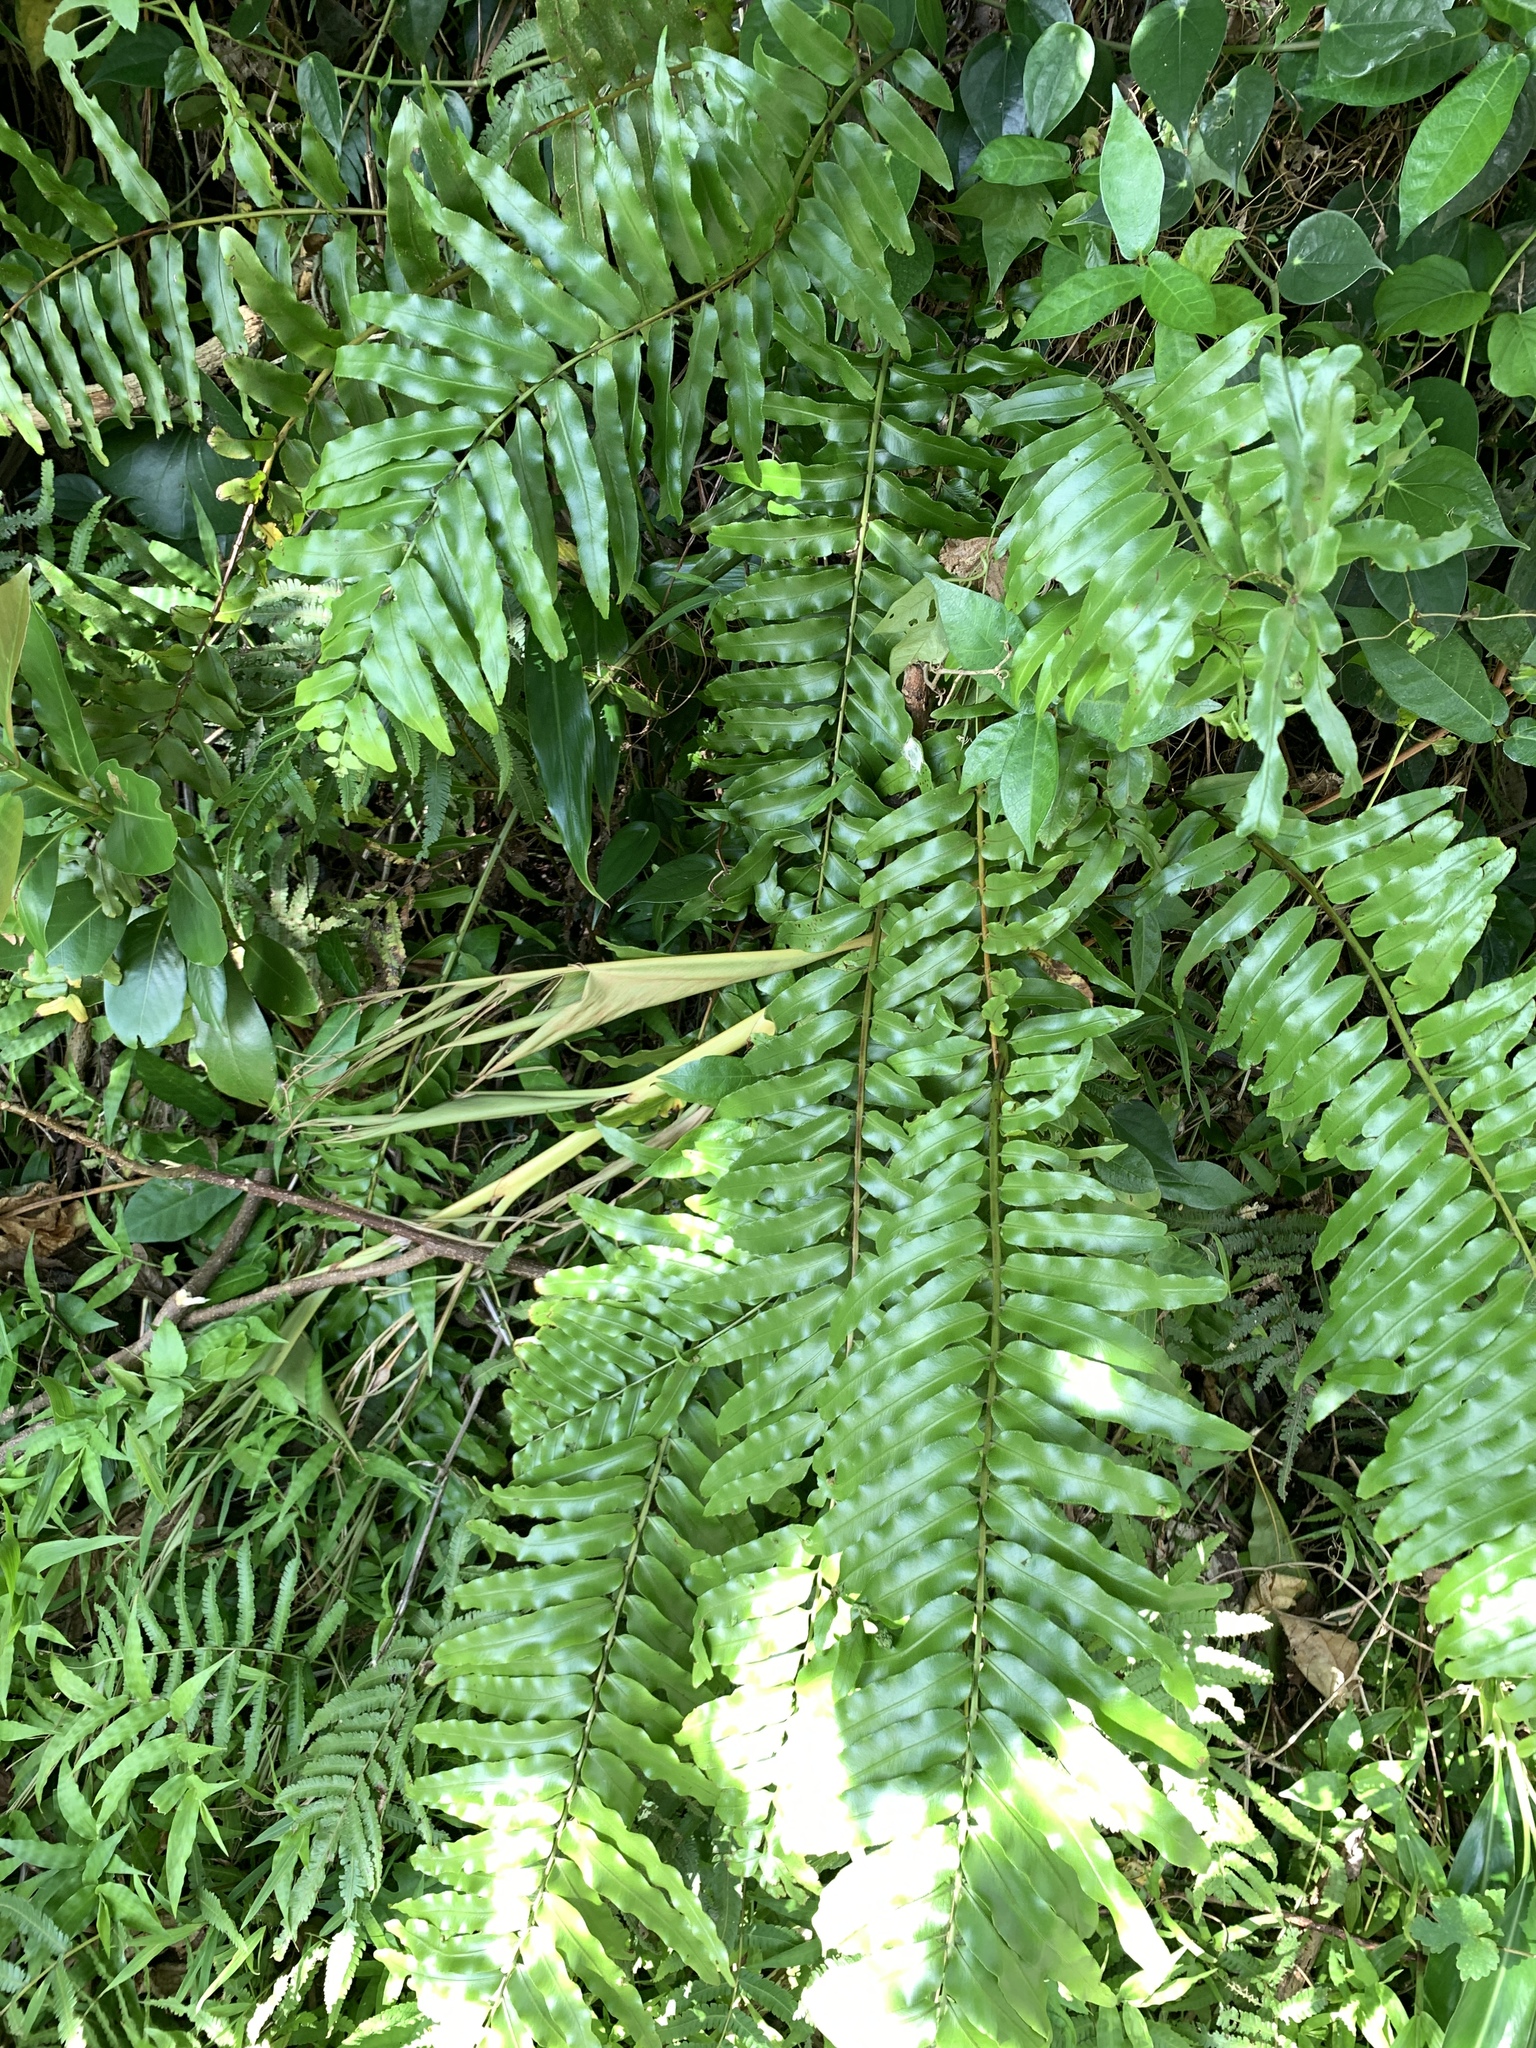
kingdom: Plantae
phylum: Tracheophyta
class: Polypodiopsida
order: Polypodiales
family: Nephrolepidaceae
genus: Nephrolepis
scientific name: Nephrolepis biserrata
